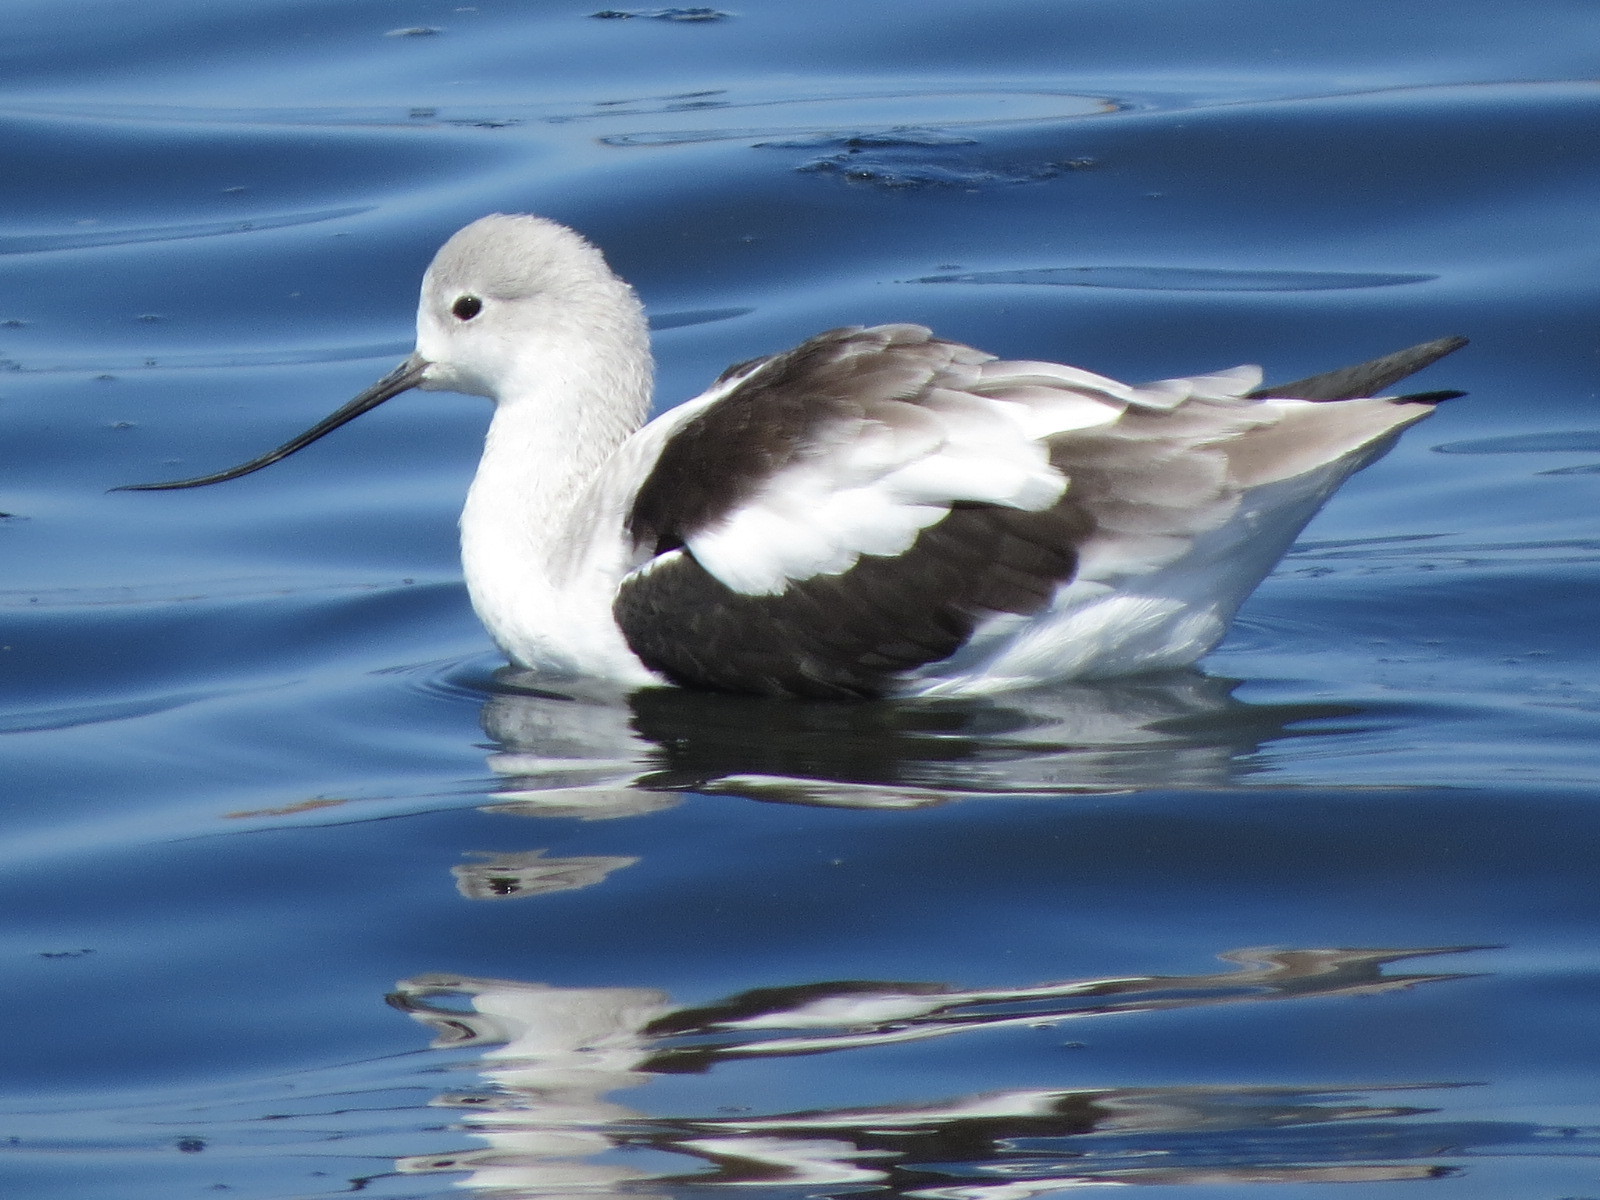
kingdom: Animalia
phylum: Chordata
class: Aves
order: Charadriiformes
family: Recurvirostridae
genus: Recurvirostra
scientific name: Recurvirostra americana
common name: American avocet
